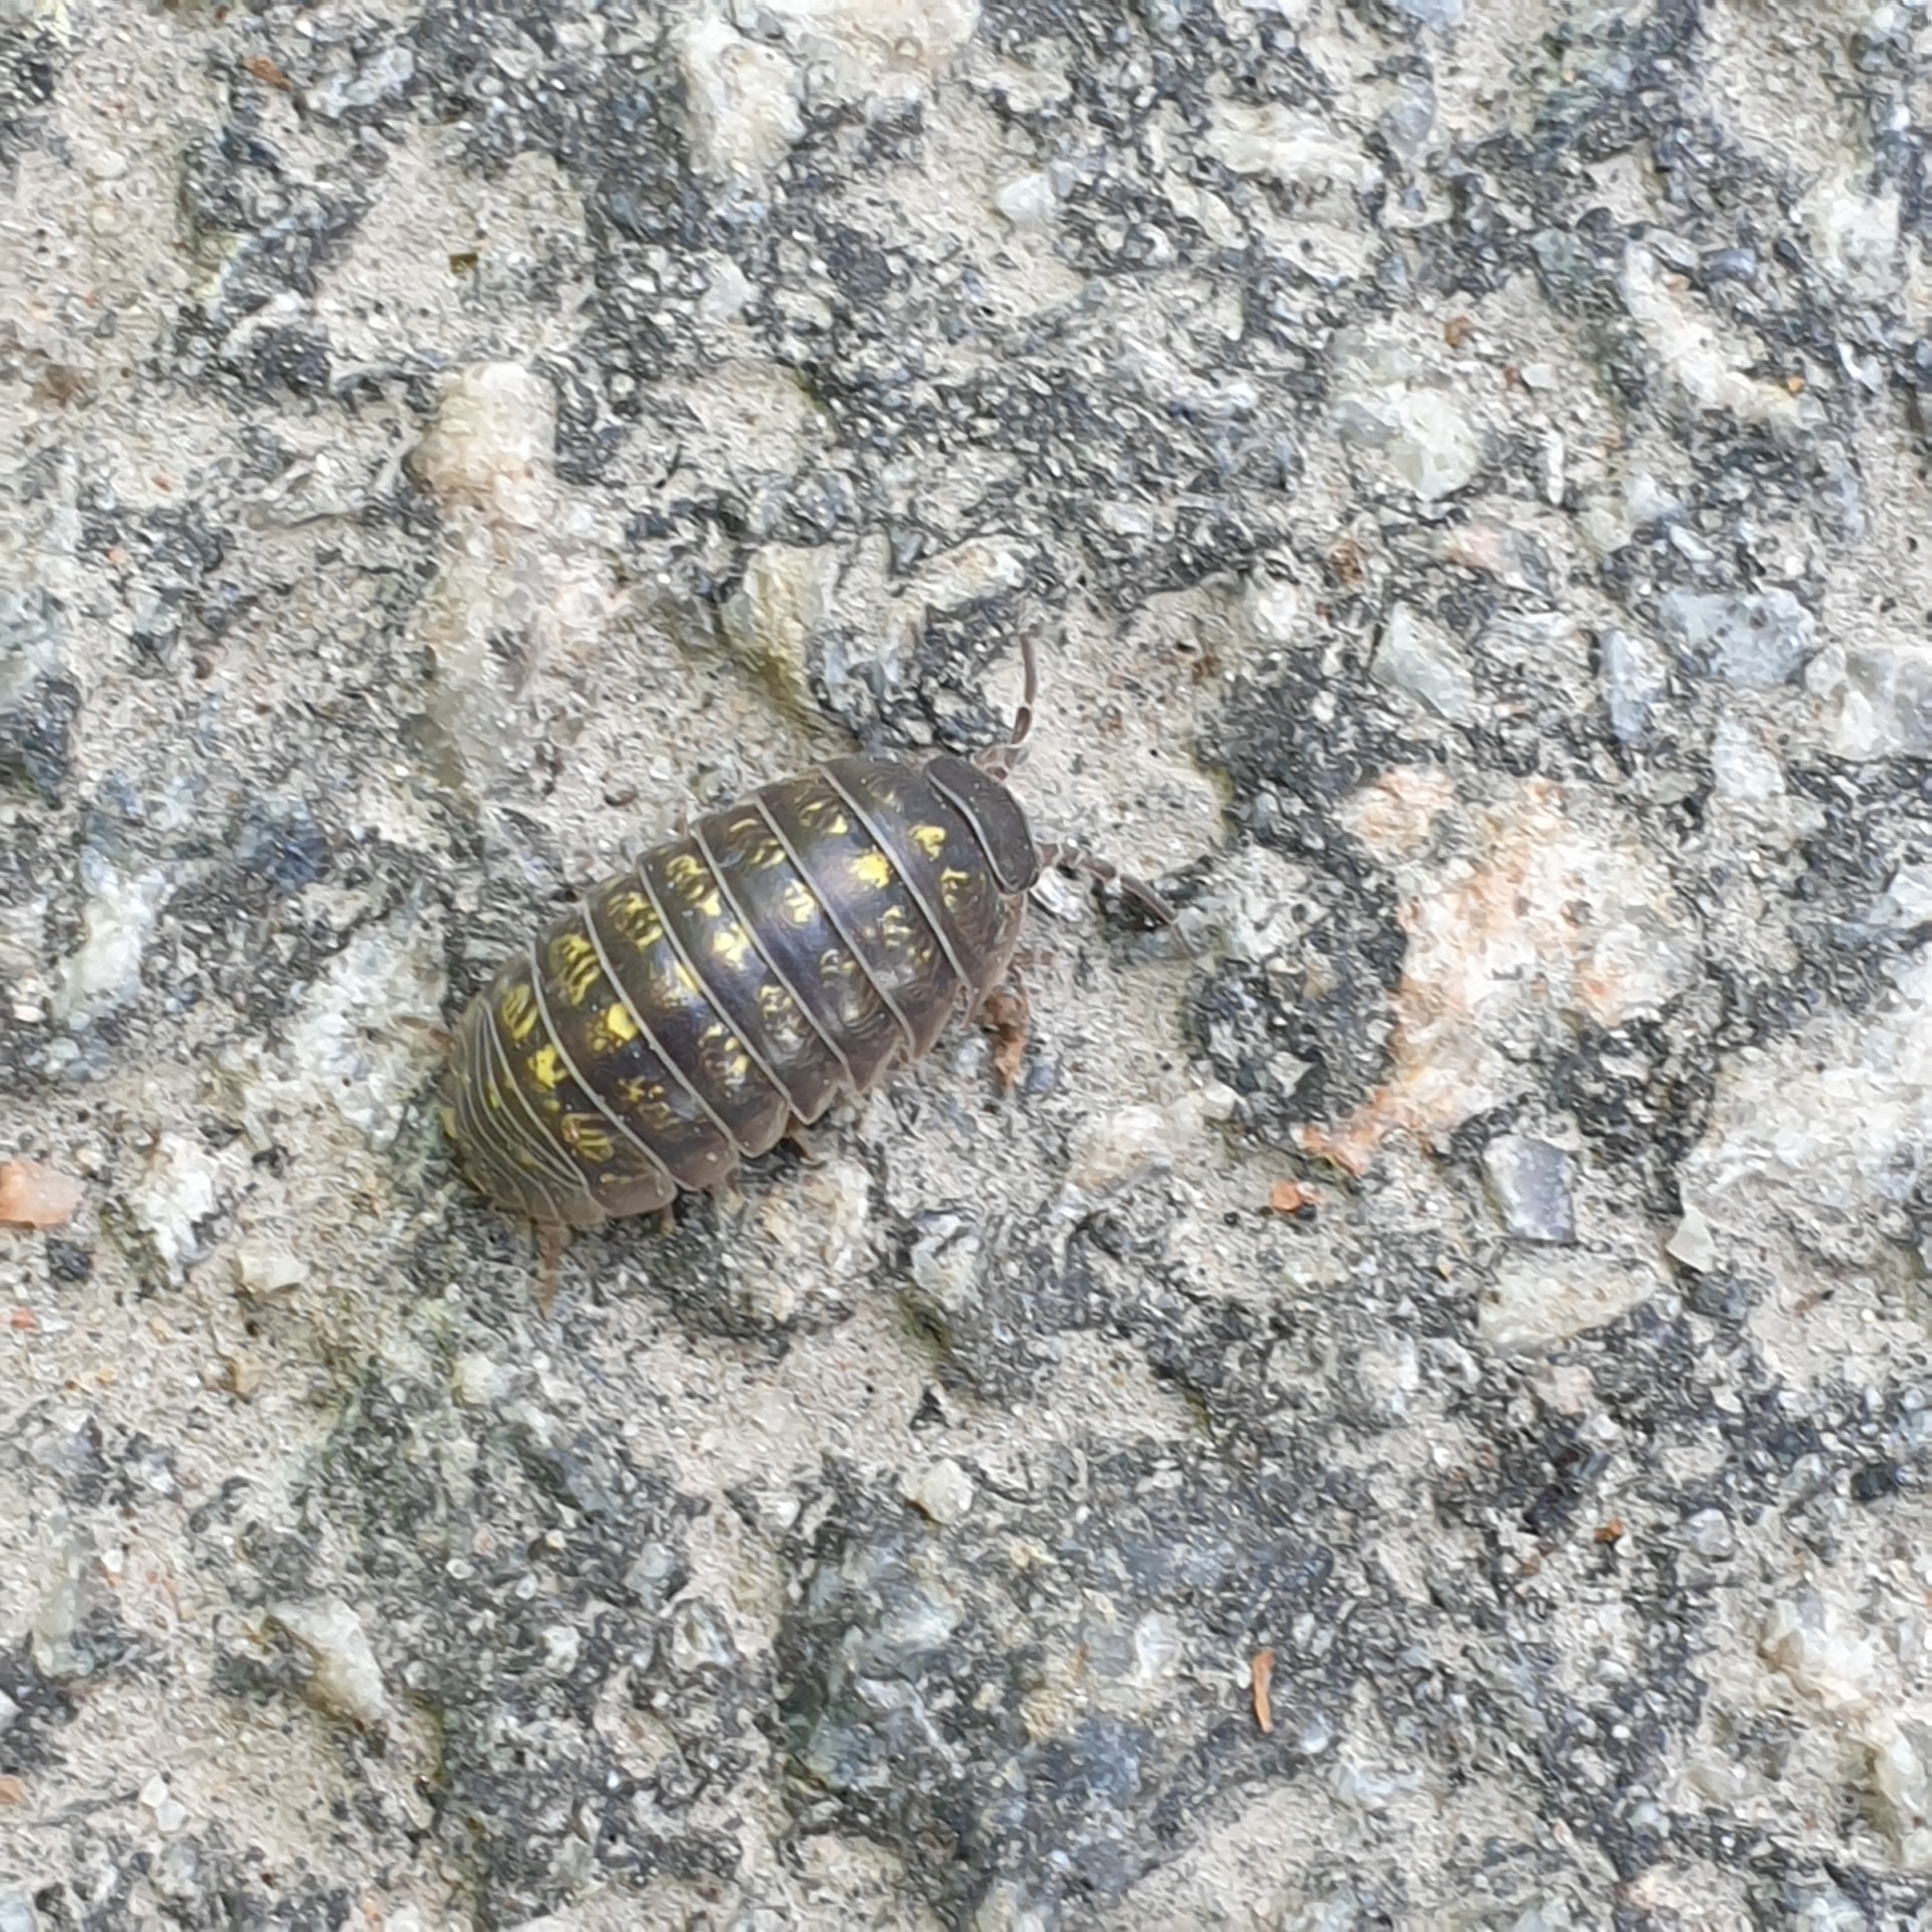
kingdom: Animalia
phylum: Arthropoda
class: Malacostraca
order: Isopoda
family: Armadillidiidae
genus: Armadillidium
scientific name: Armadillidium vulgare
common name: Common pill woodlouse
